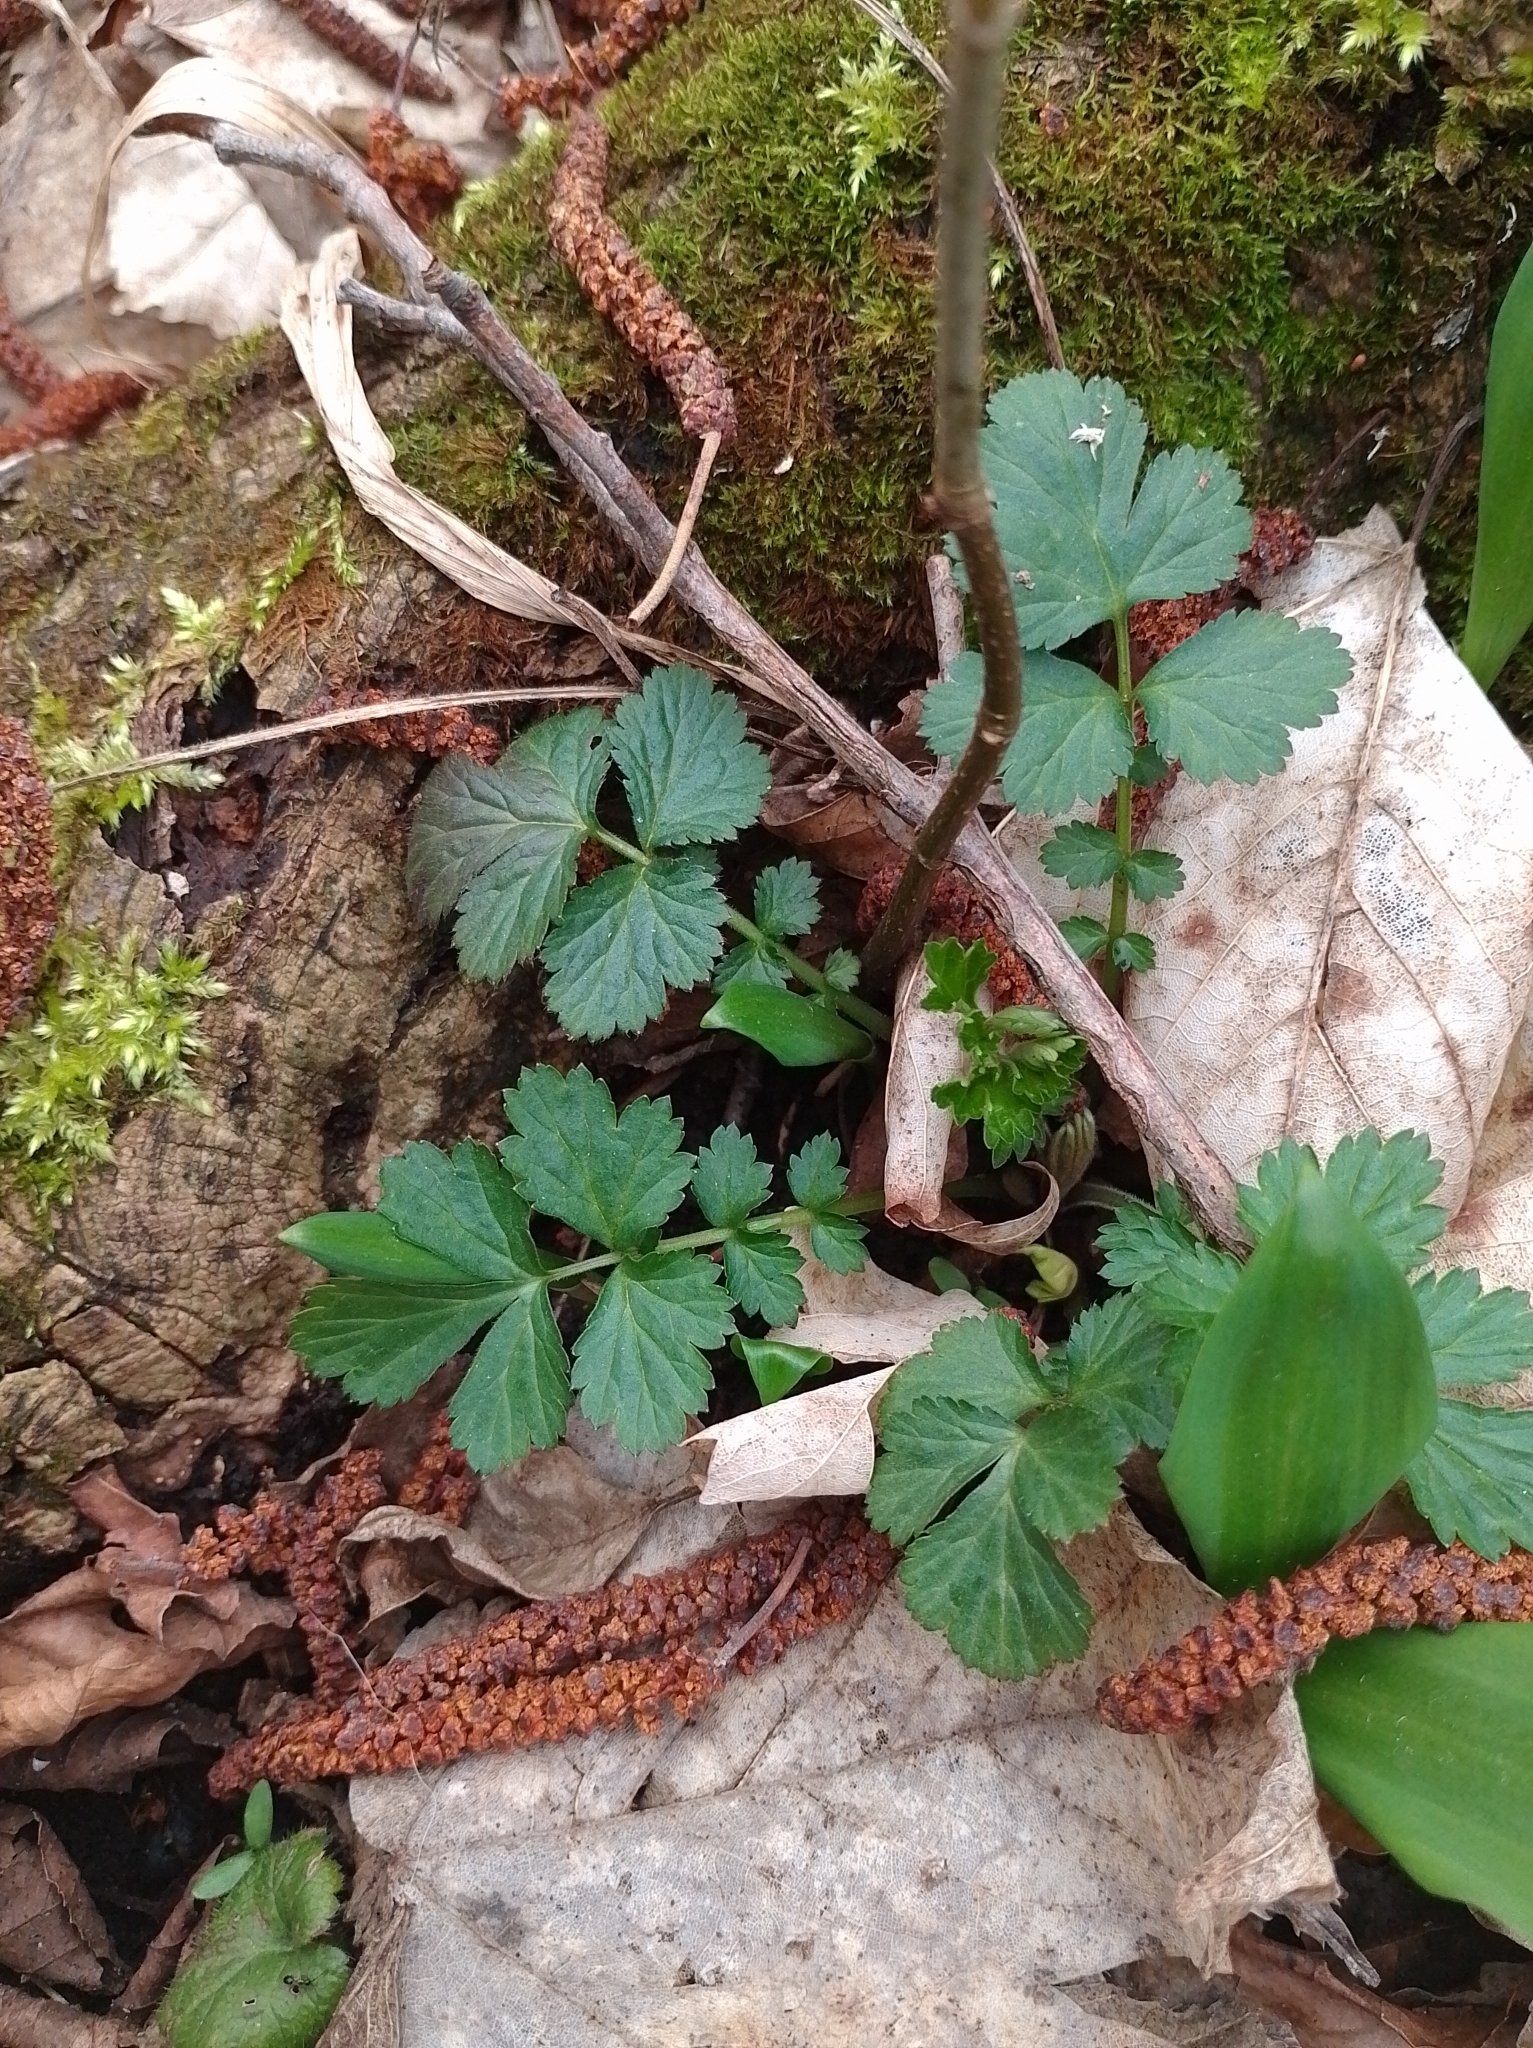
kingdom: Plantae
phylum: Tracheophyta
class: Magnoliopsida
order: Rosales
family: Rosaceae
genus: Geum
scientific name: Geum urbanum
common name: Wood avens
